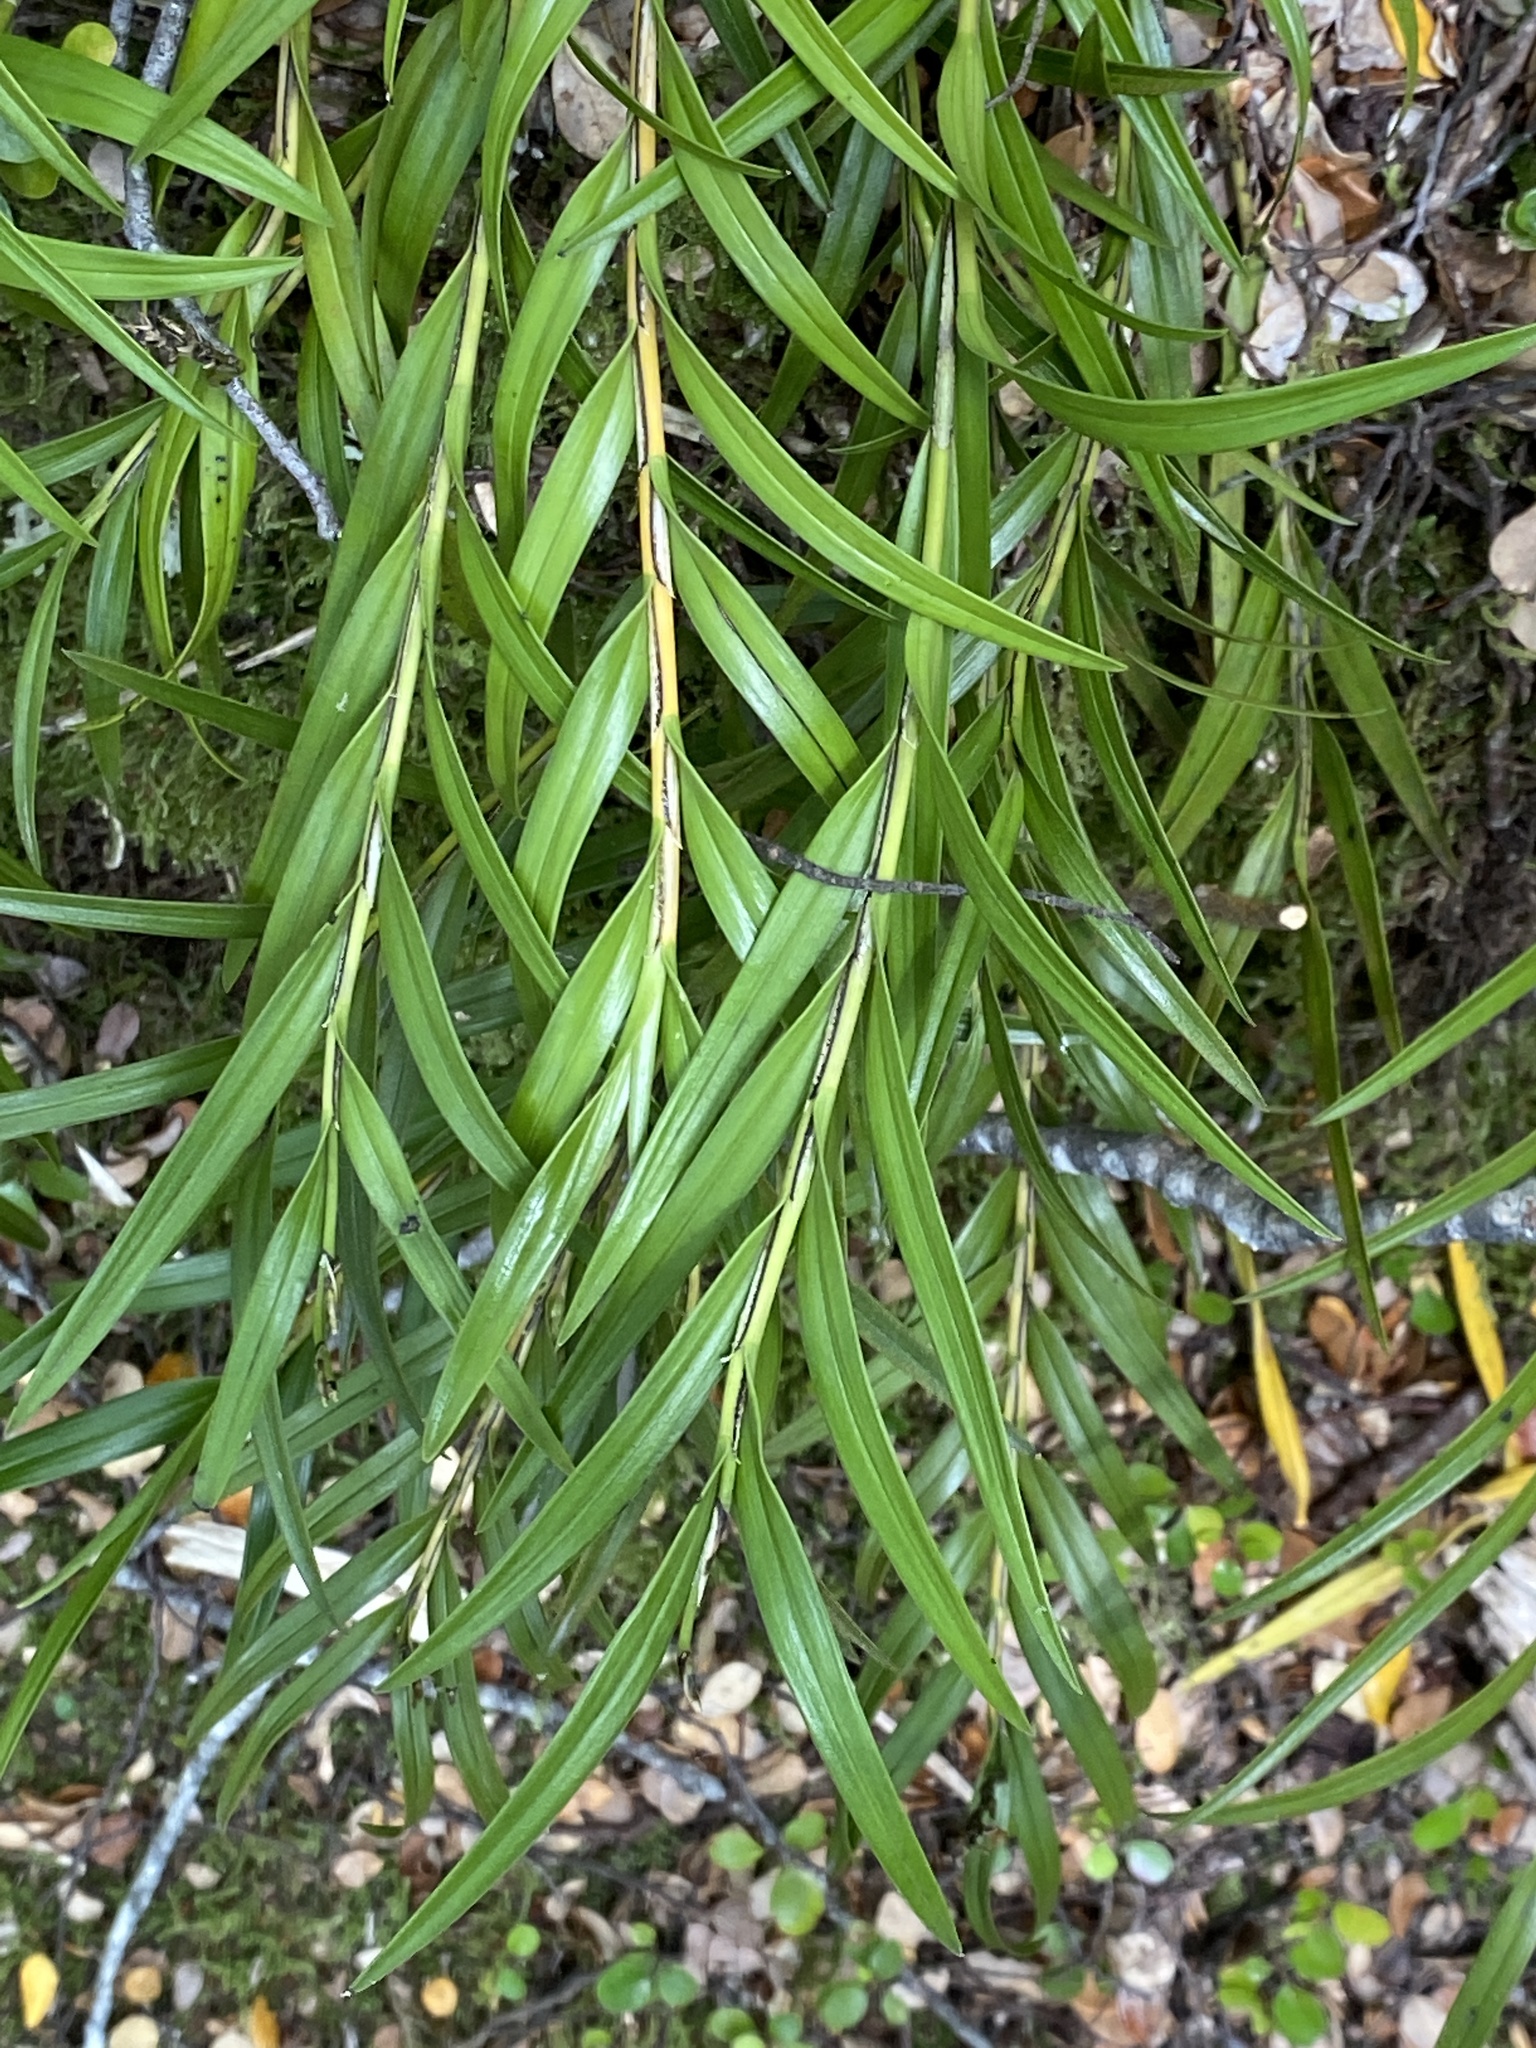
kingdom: Plantae
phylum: Tracheophyta
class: Liliopsida
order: Asparagales
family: Orchidaceae
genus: Earina
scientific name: Earina autumnalis
